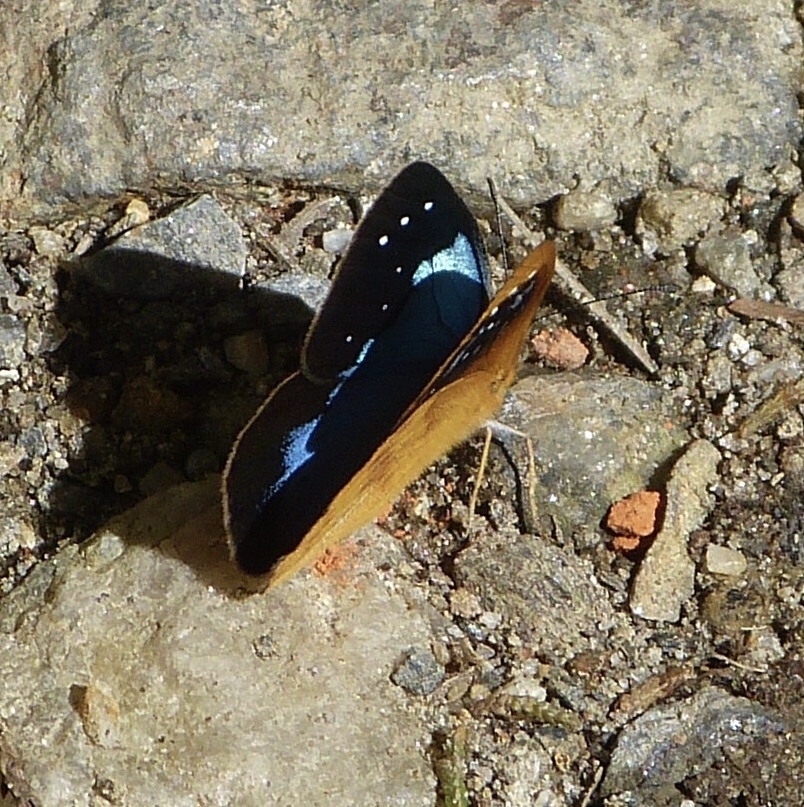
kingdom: Animalia
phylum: Arthropoda
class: Insecta
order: Lepidoptera
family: Nymphalidae
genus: Lymanopoda
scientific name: Lymanopoda caeruleata
